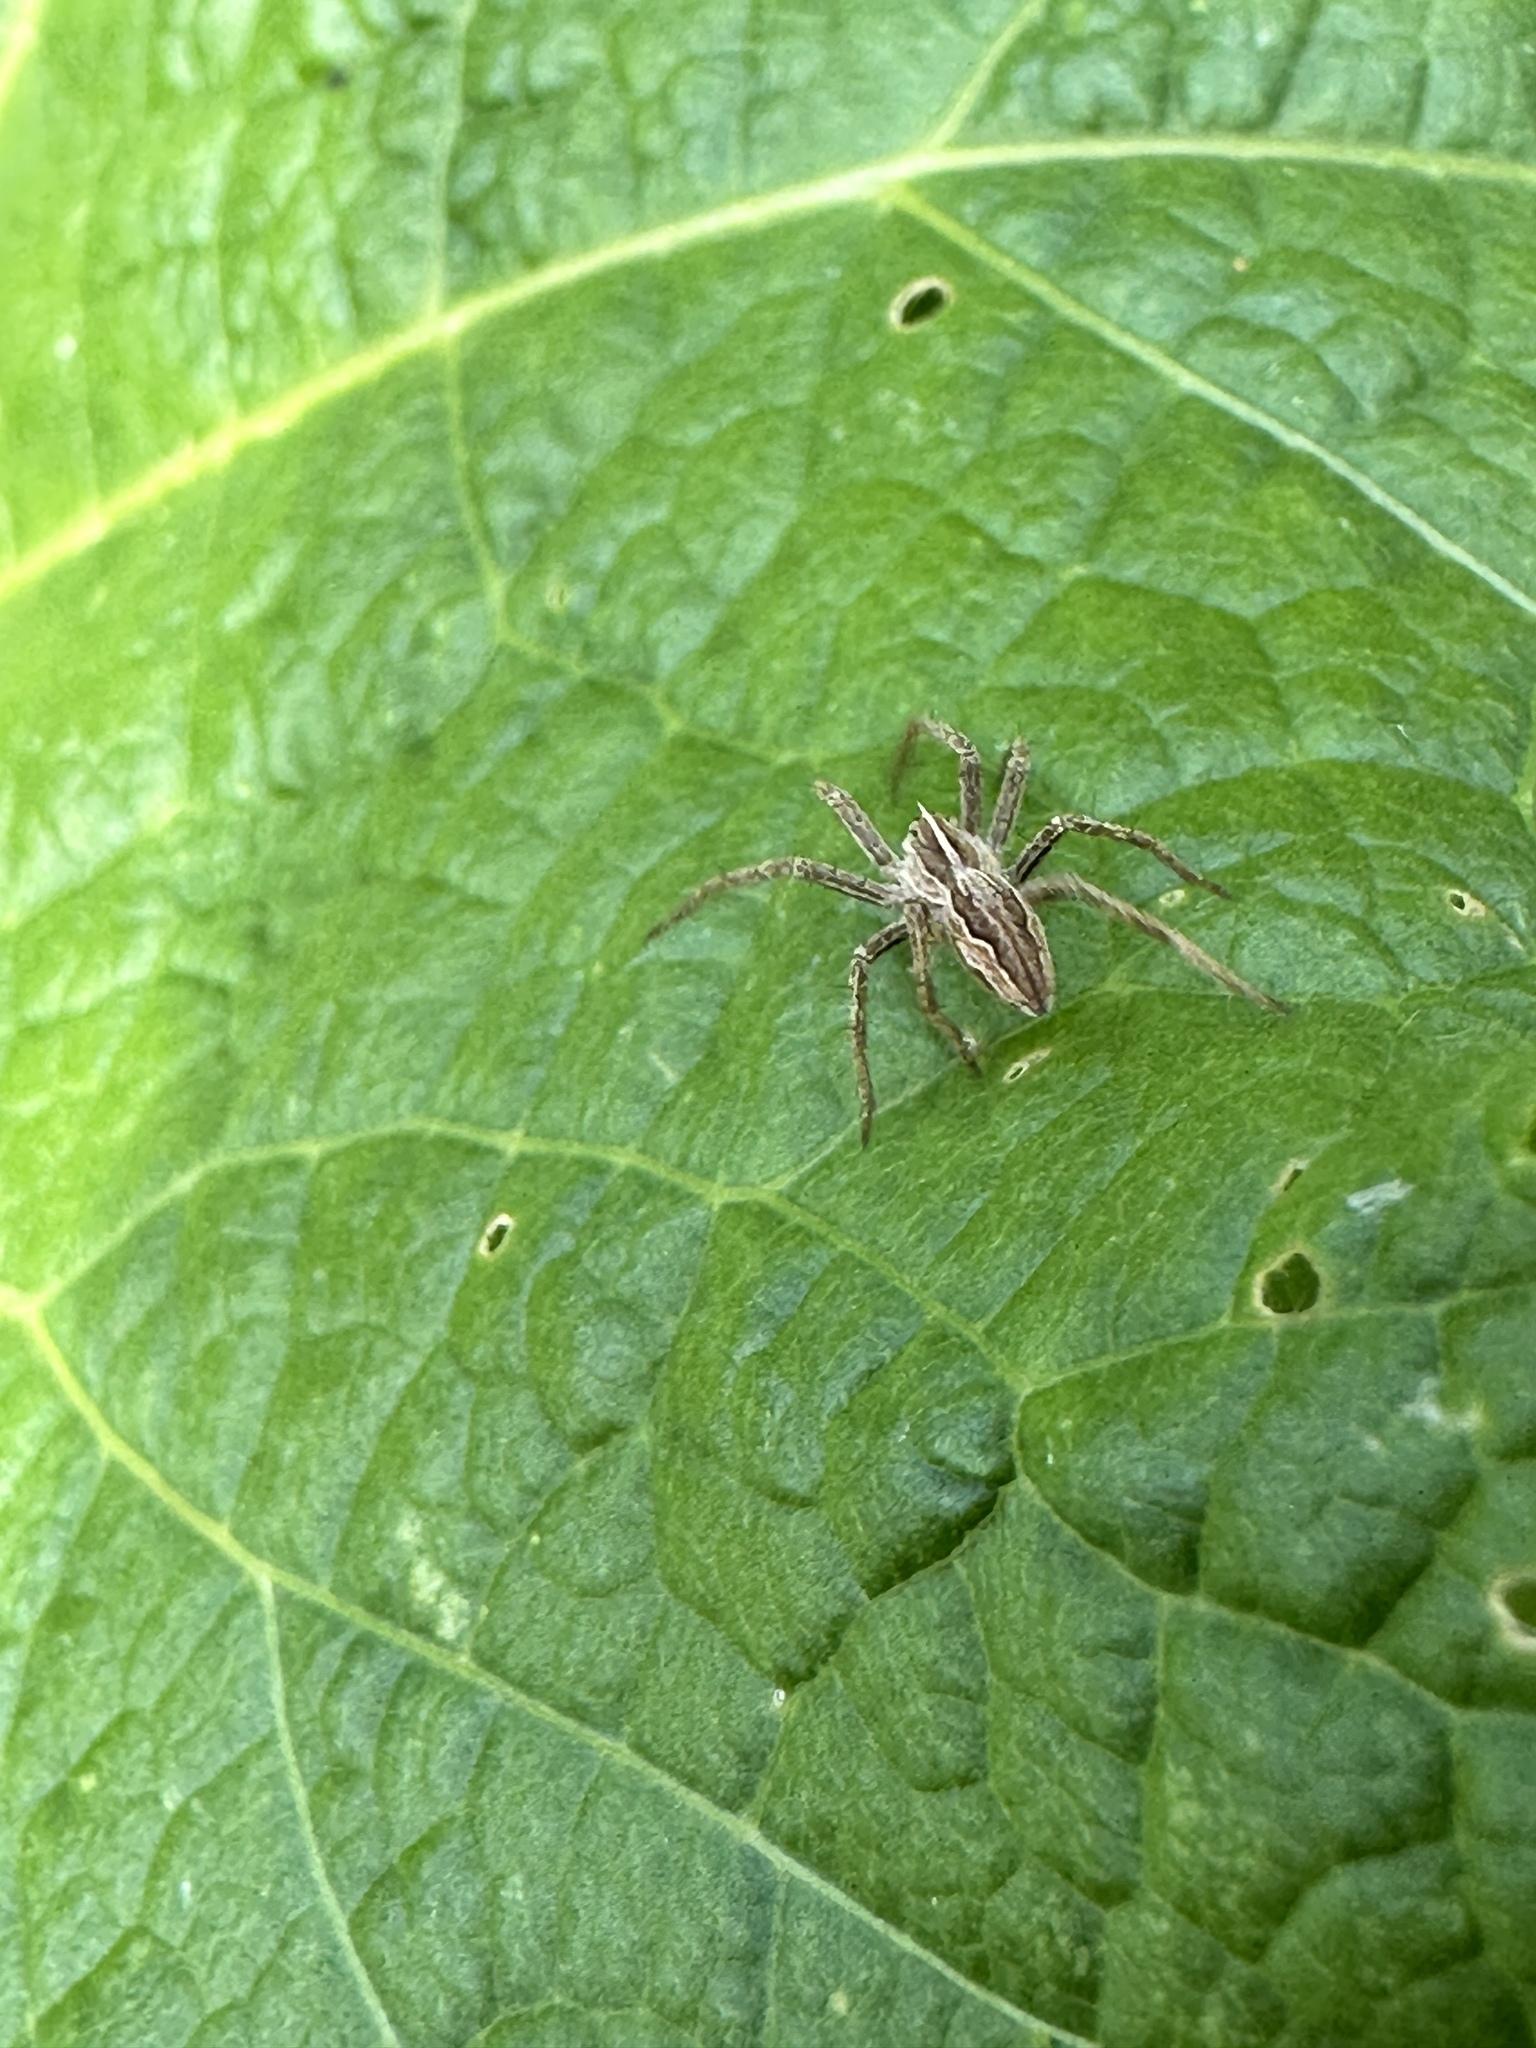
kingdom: Animalia
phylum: Arthropoda
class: Arachnida
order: Araneae
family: Pisauridae
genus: Pisaura
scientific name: Pisaura mirabilis
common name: Tent spider
